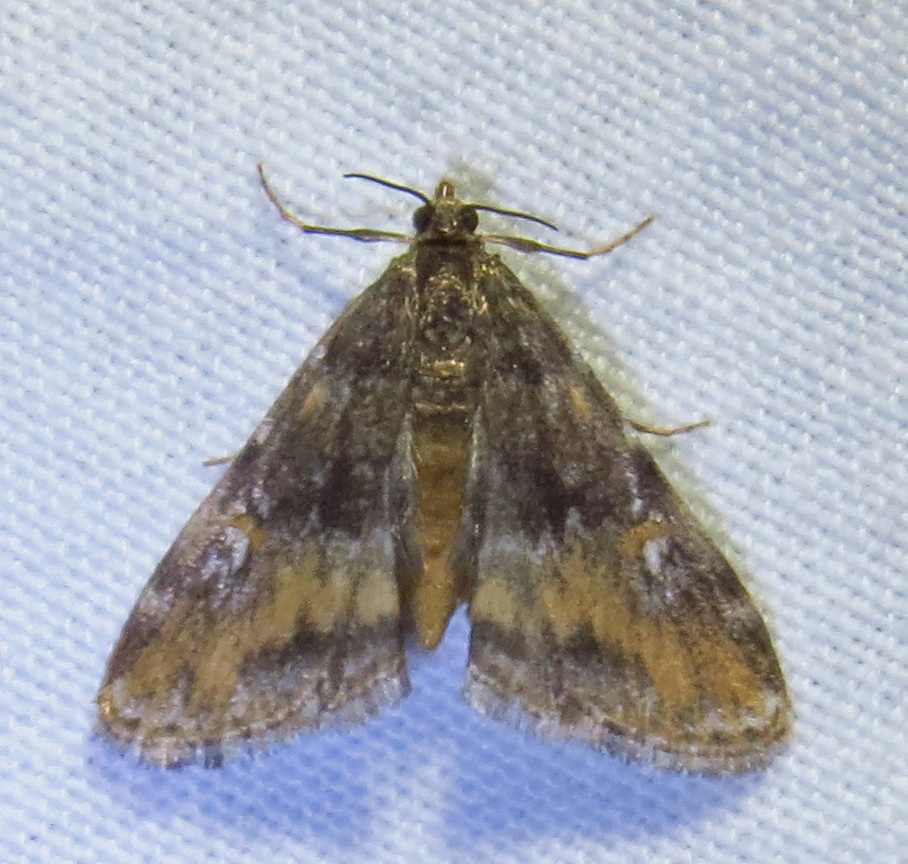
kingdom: Animalia
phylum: Arthropoda
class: Insecta
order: Lepidoptera
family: Crambidae
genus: Elophila
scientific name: Elophila obliteralis
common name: Waterlily leafcutter moth
